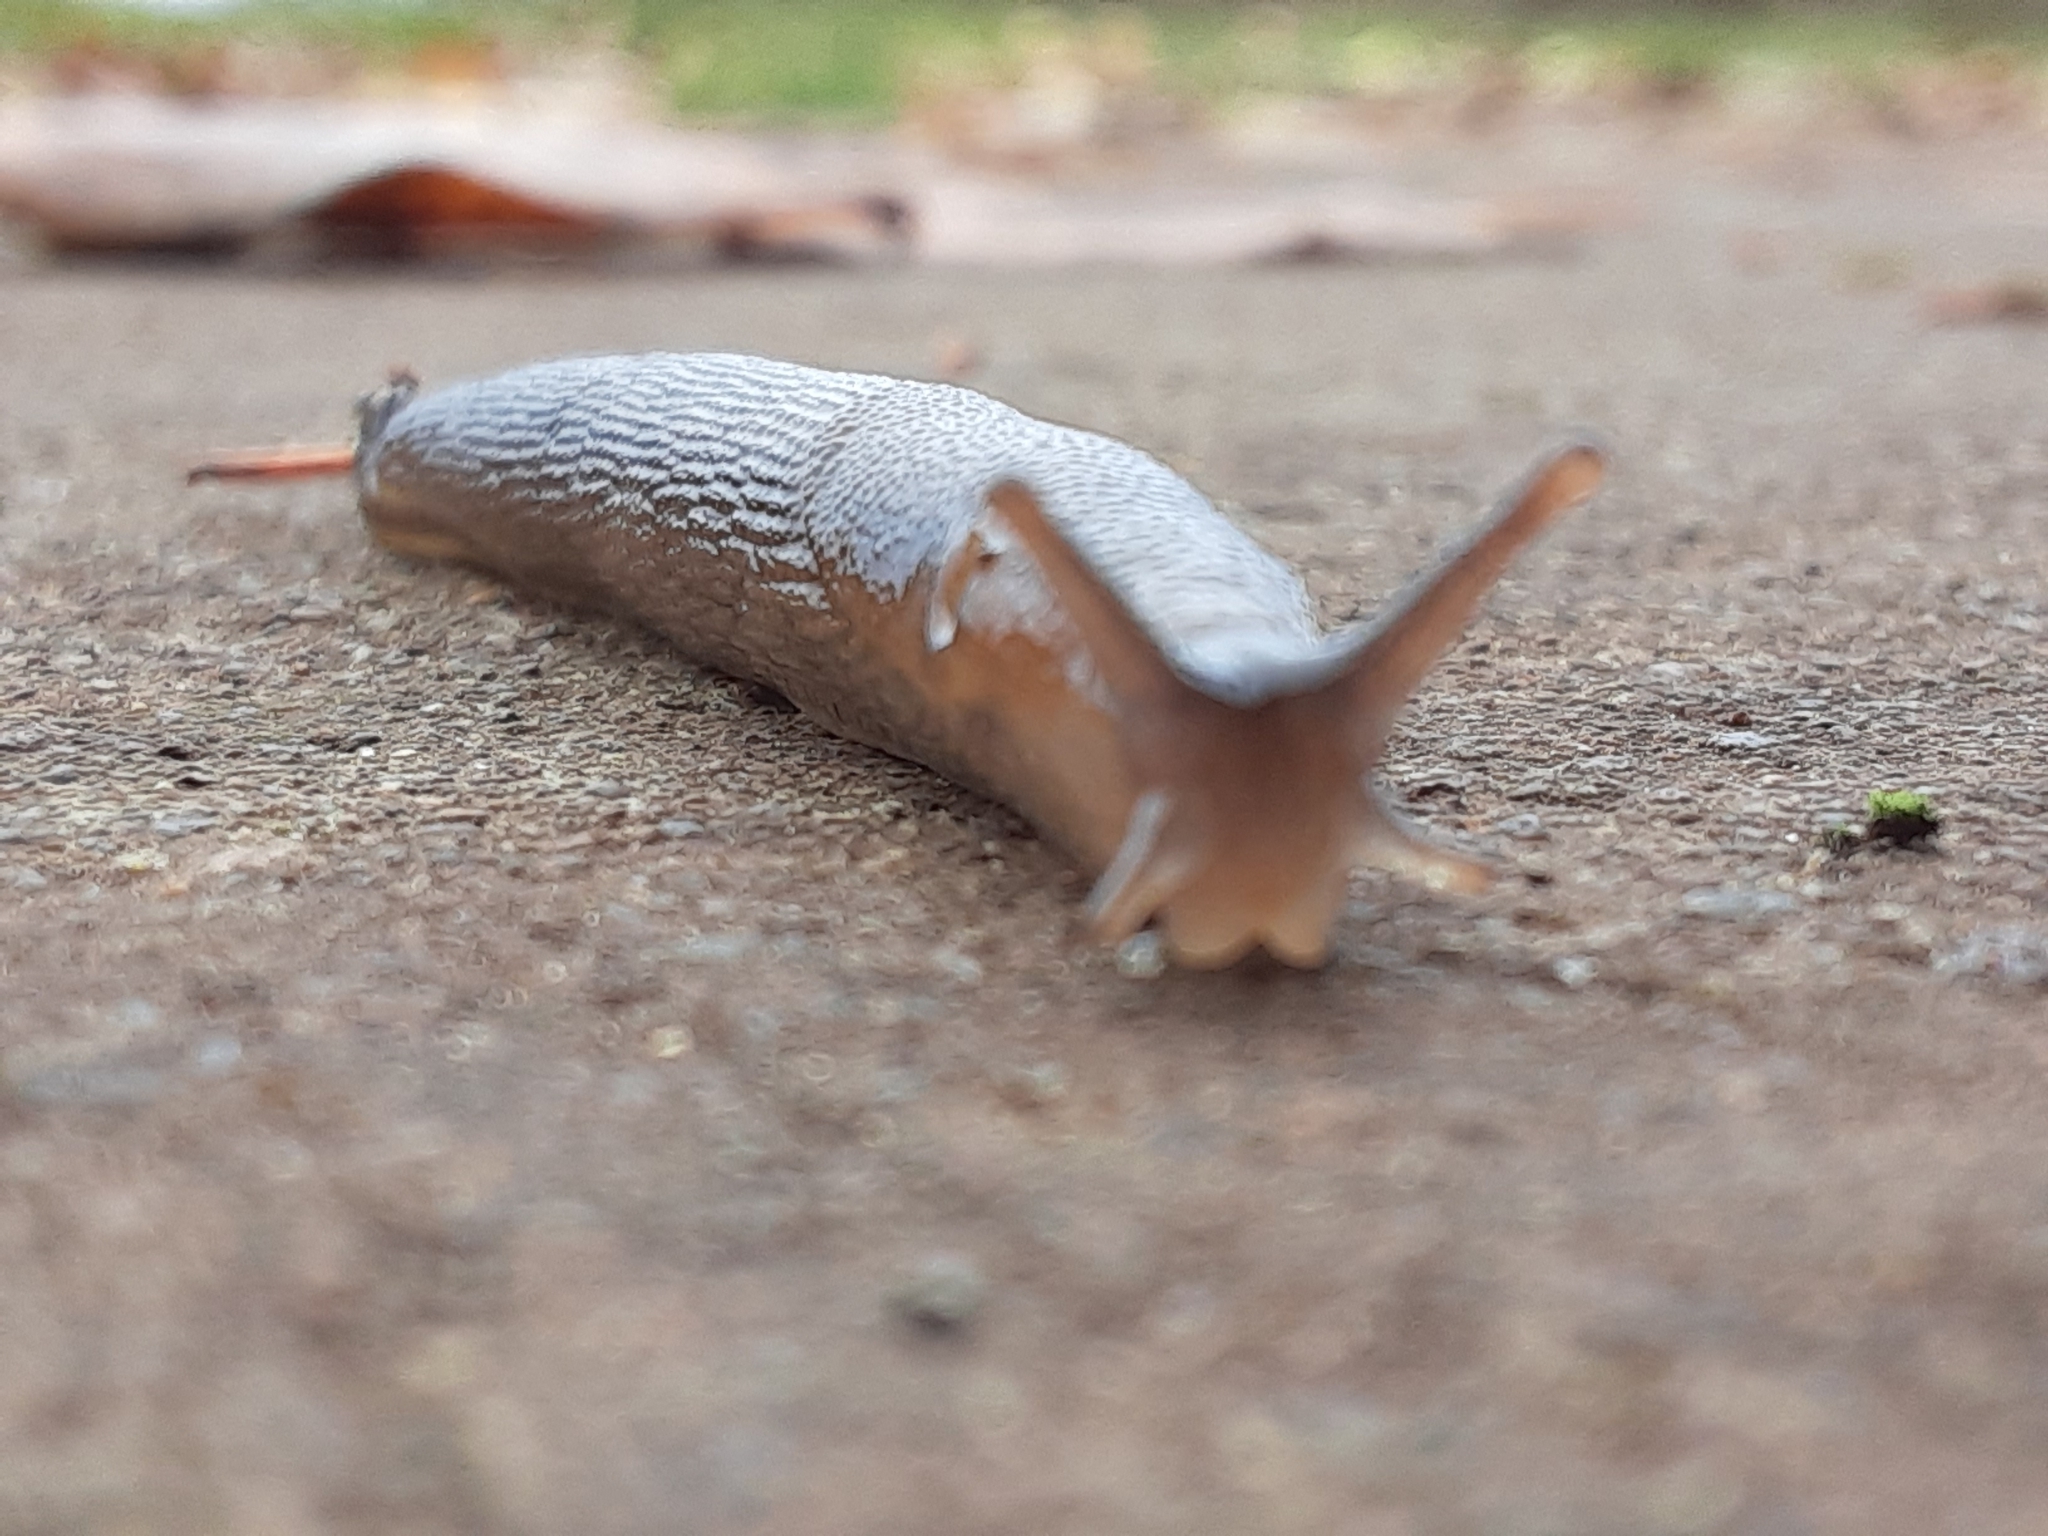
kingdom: Animalia
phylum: Mollusca
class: Gastropoda
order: Stylommatophora
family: Arionidae
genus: Arion
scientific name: Arion rufus
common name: Chocolate arion
